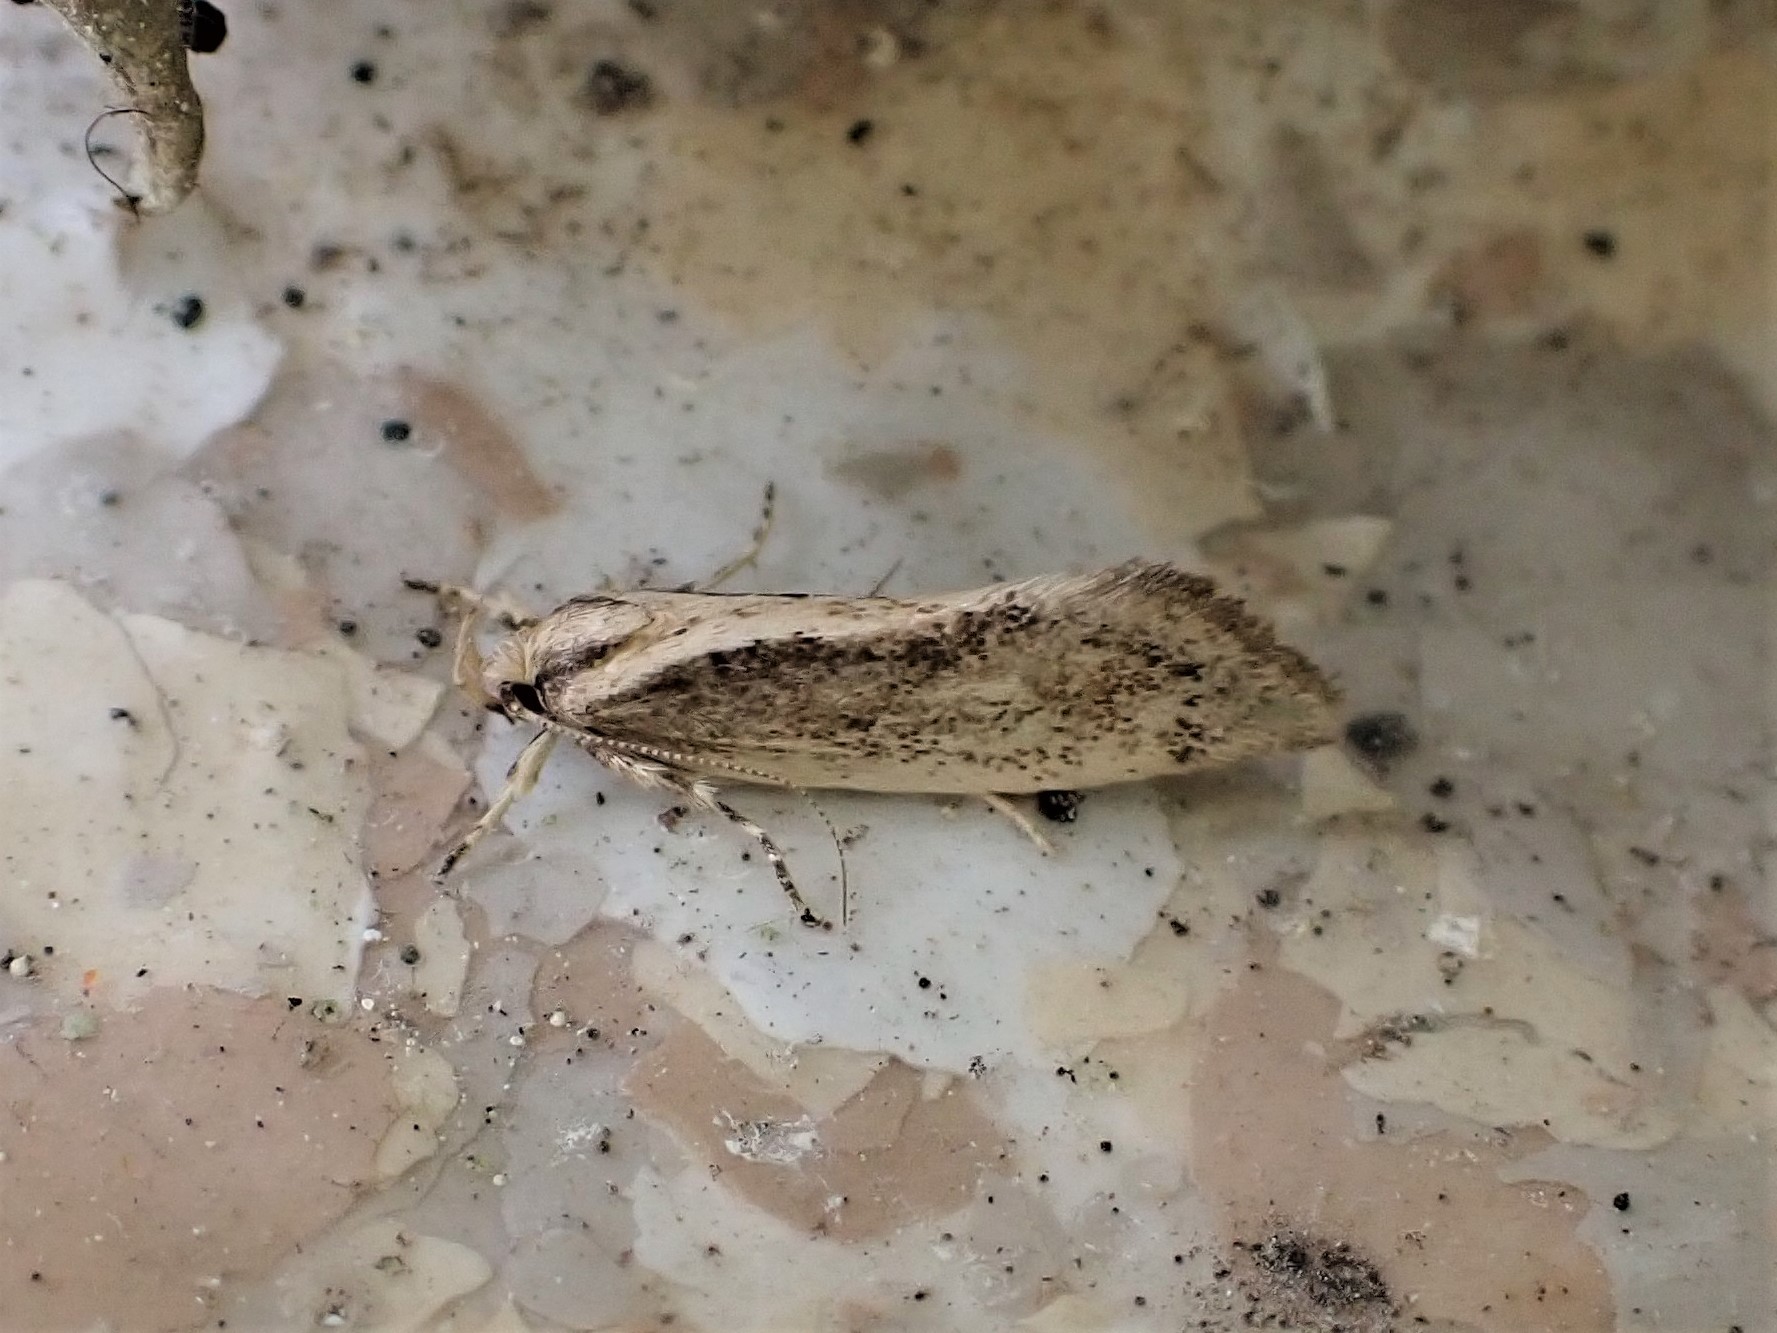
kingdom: Animalia
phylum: Arthropoda
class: Insecta
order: Lepidoptera
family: Oecophoridae
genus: Tingena
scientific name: Tingena chloradelpha
